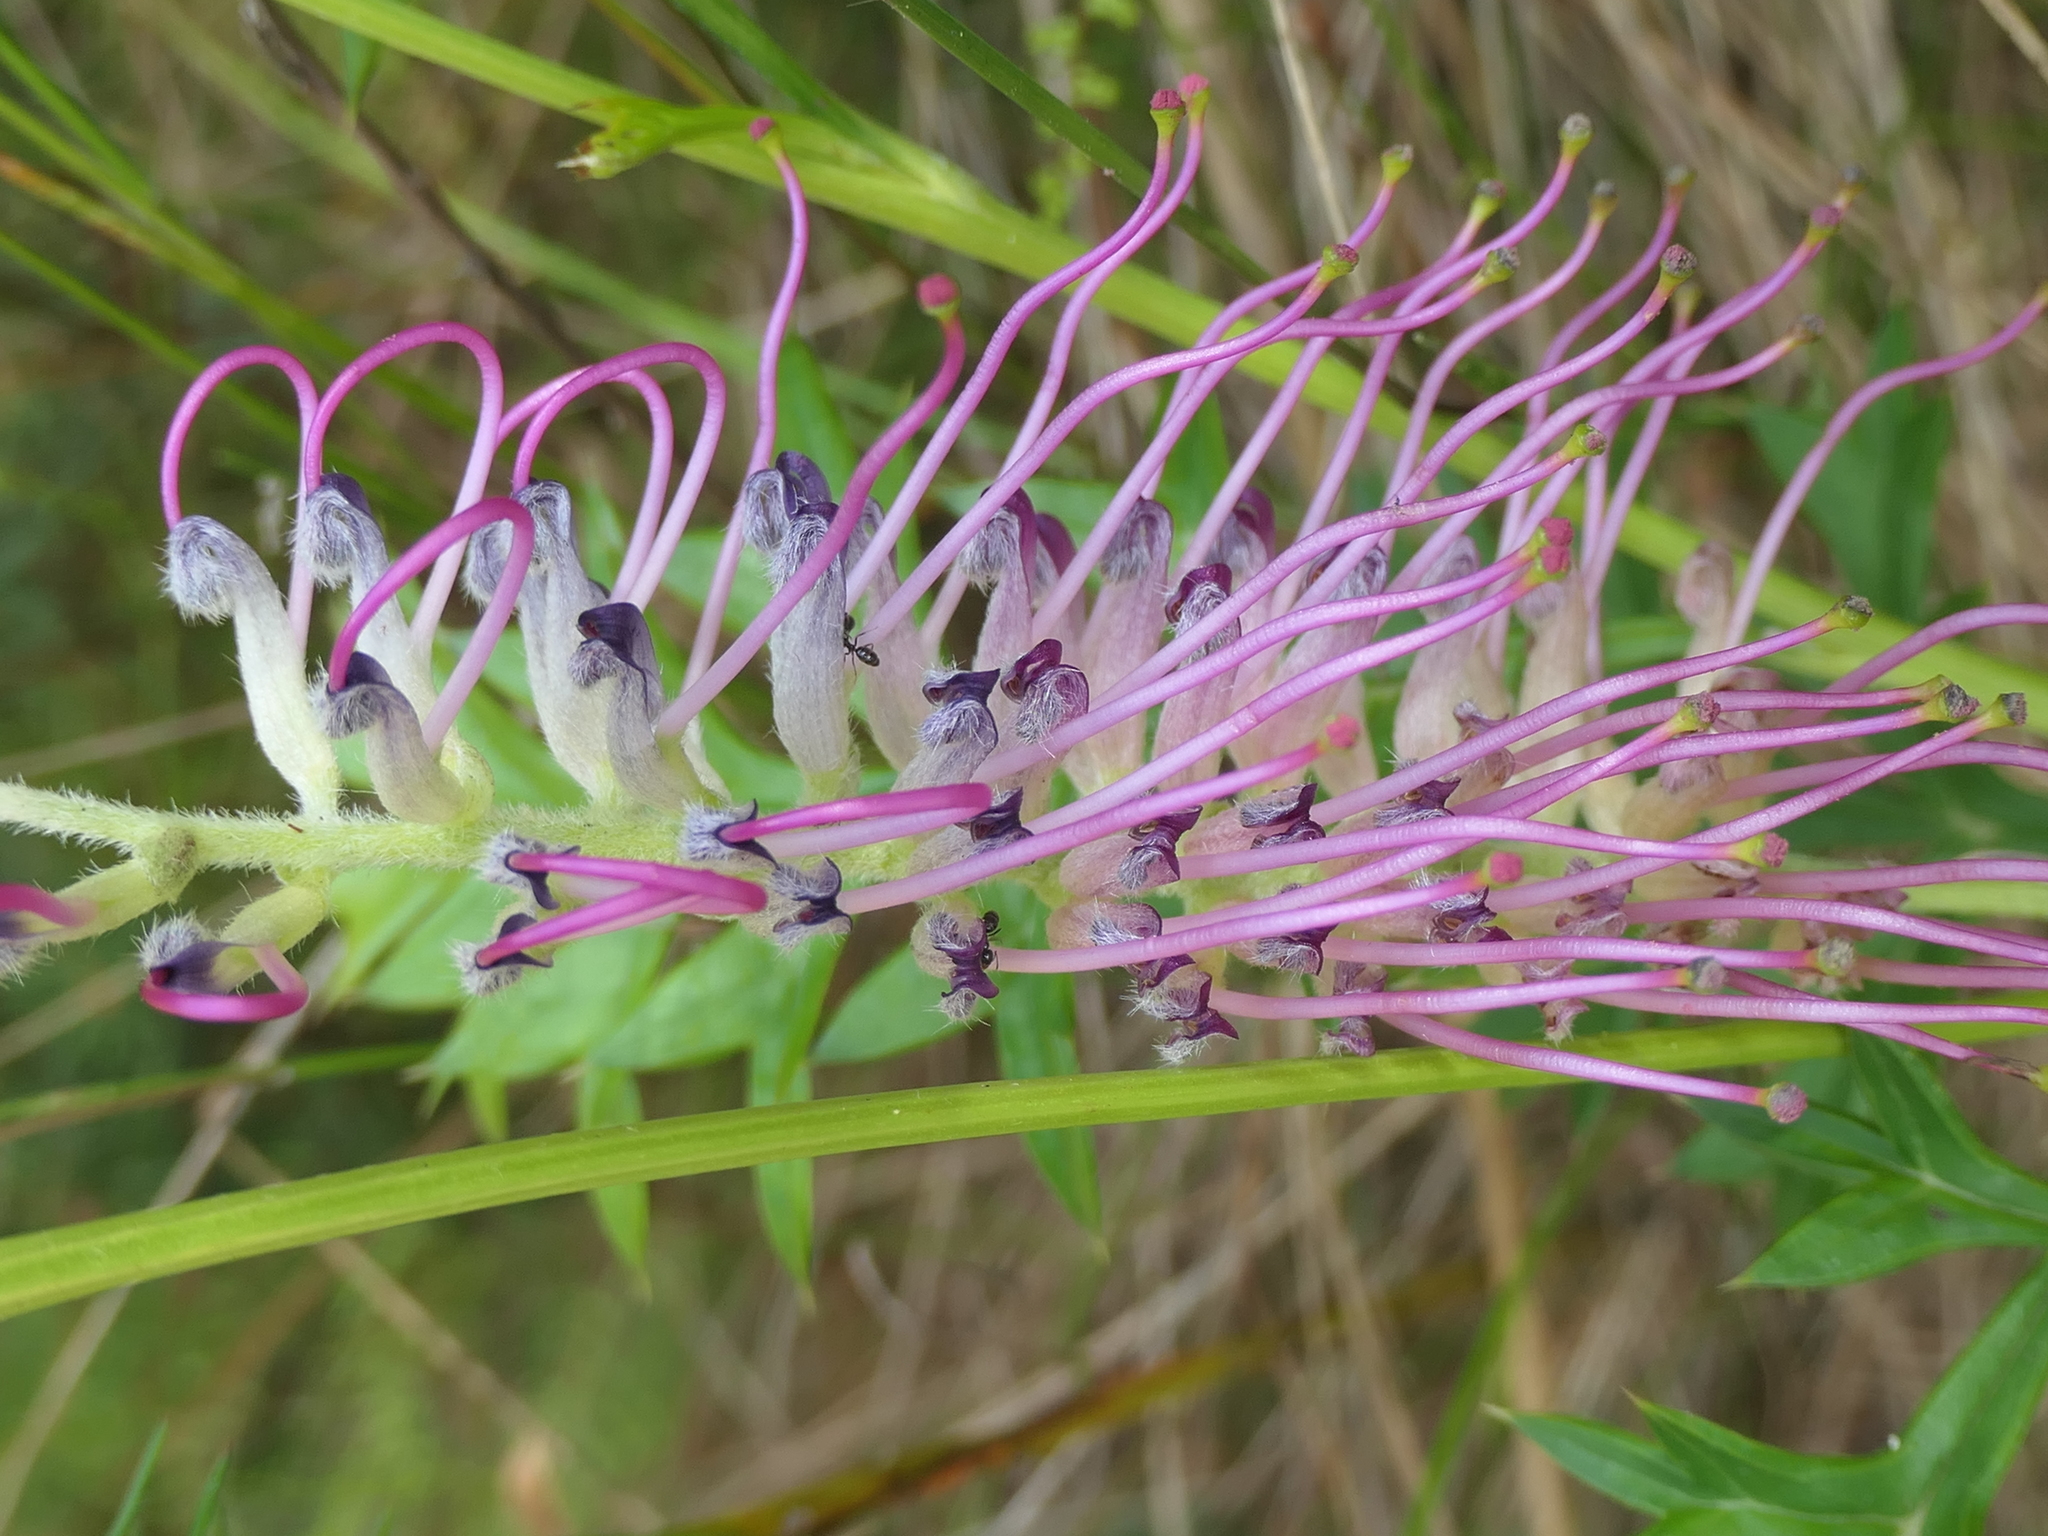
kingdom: Plantae
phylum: Tracheophyta
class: Magnoliopsida
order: Proteales
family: Proteaceae
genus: Grevillea
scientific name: Grevillea acanthifolia
